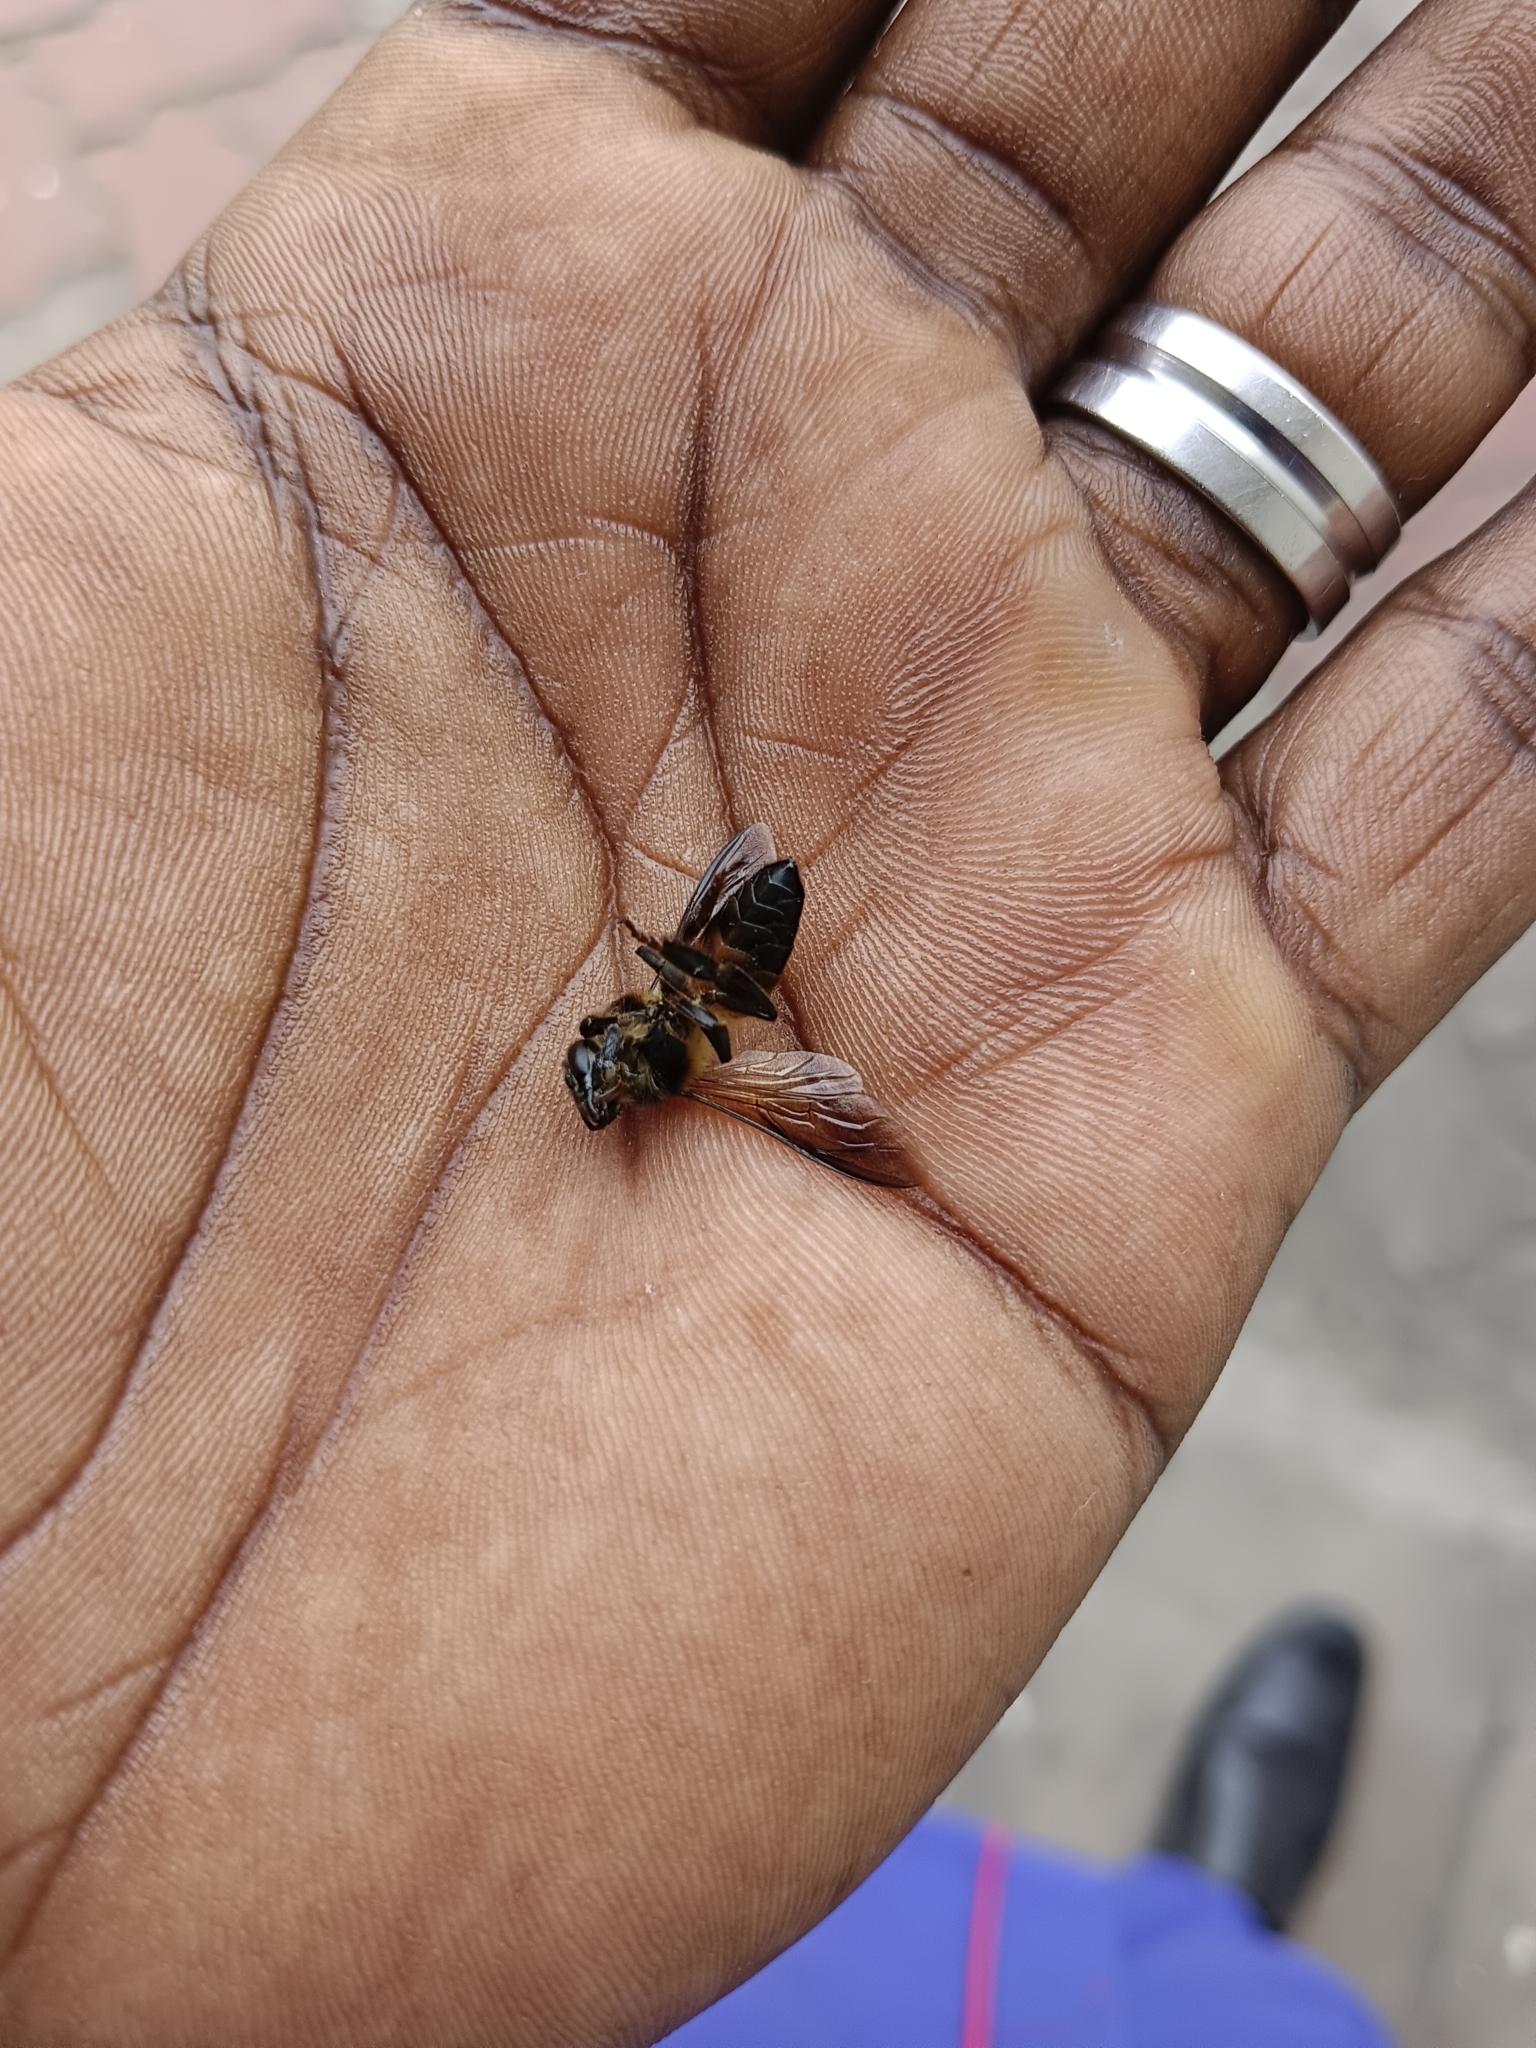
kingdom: Animalia
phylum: Arthropoda
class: Insecta
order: Hymenoptera
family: Apidae
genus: Apis
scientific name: Apis dorsata
